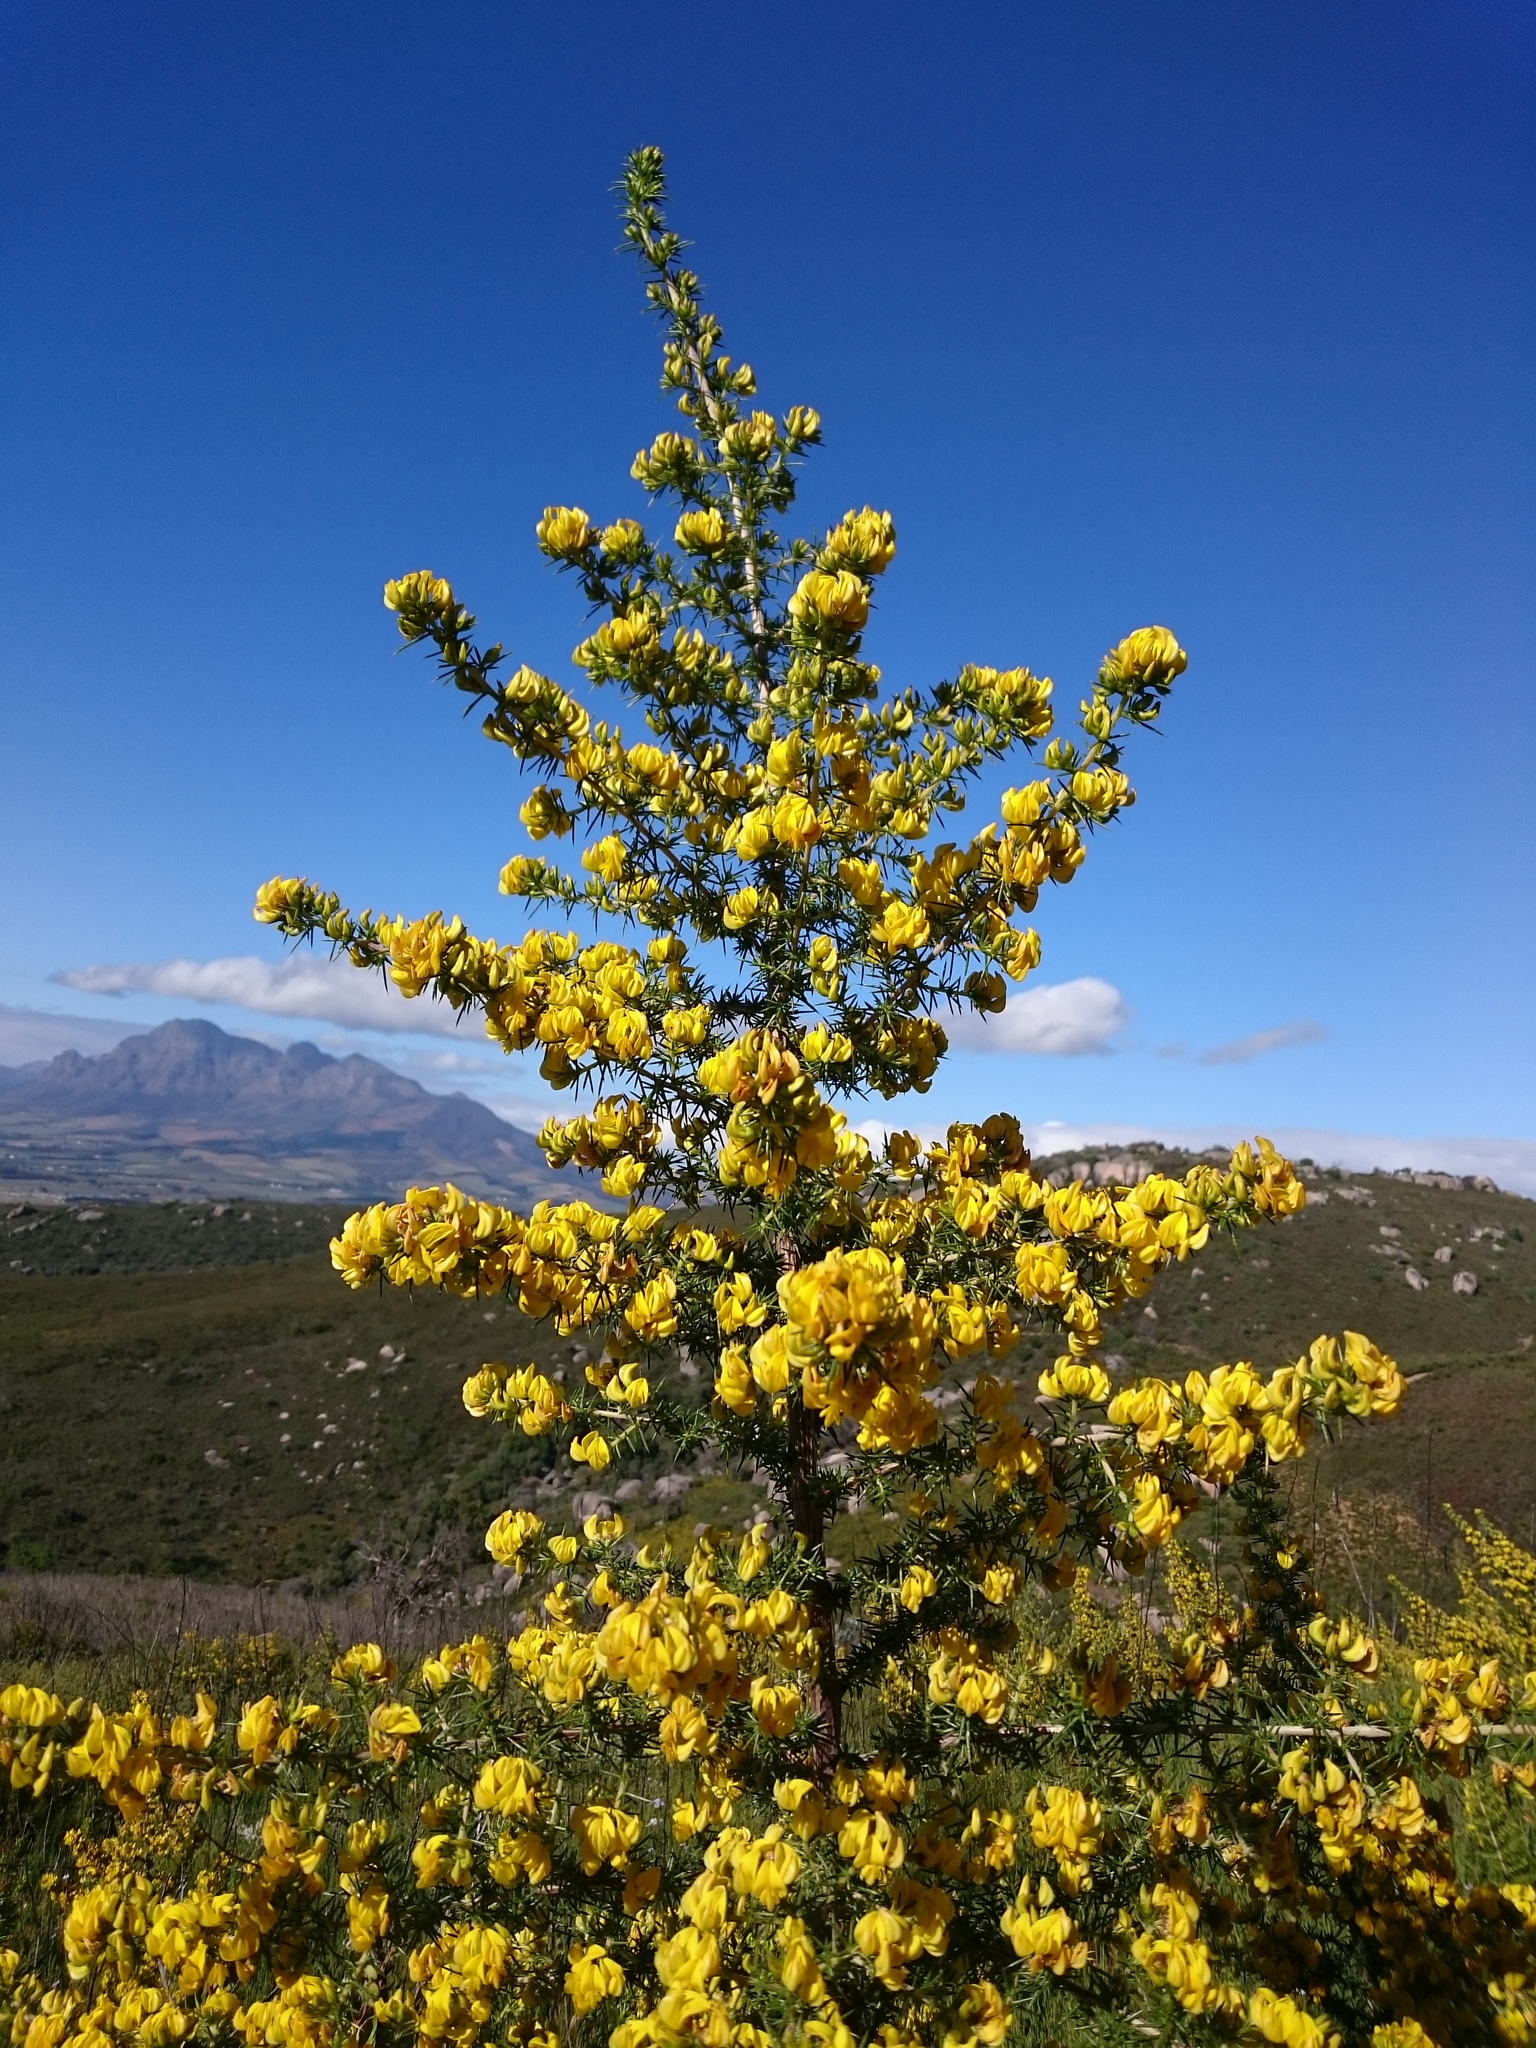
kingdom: Plantae
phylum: Tracheophyta
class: Magnoliopsida
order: Fabales
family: Fabaceae
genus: Aspalathus
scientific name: Aspalathus astroites
